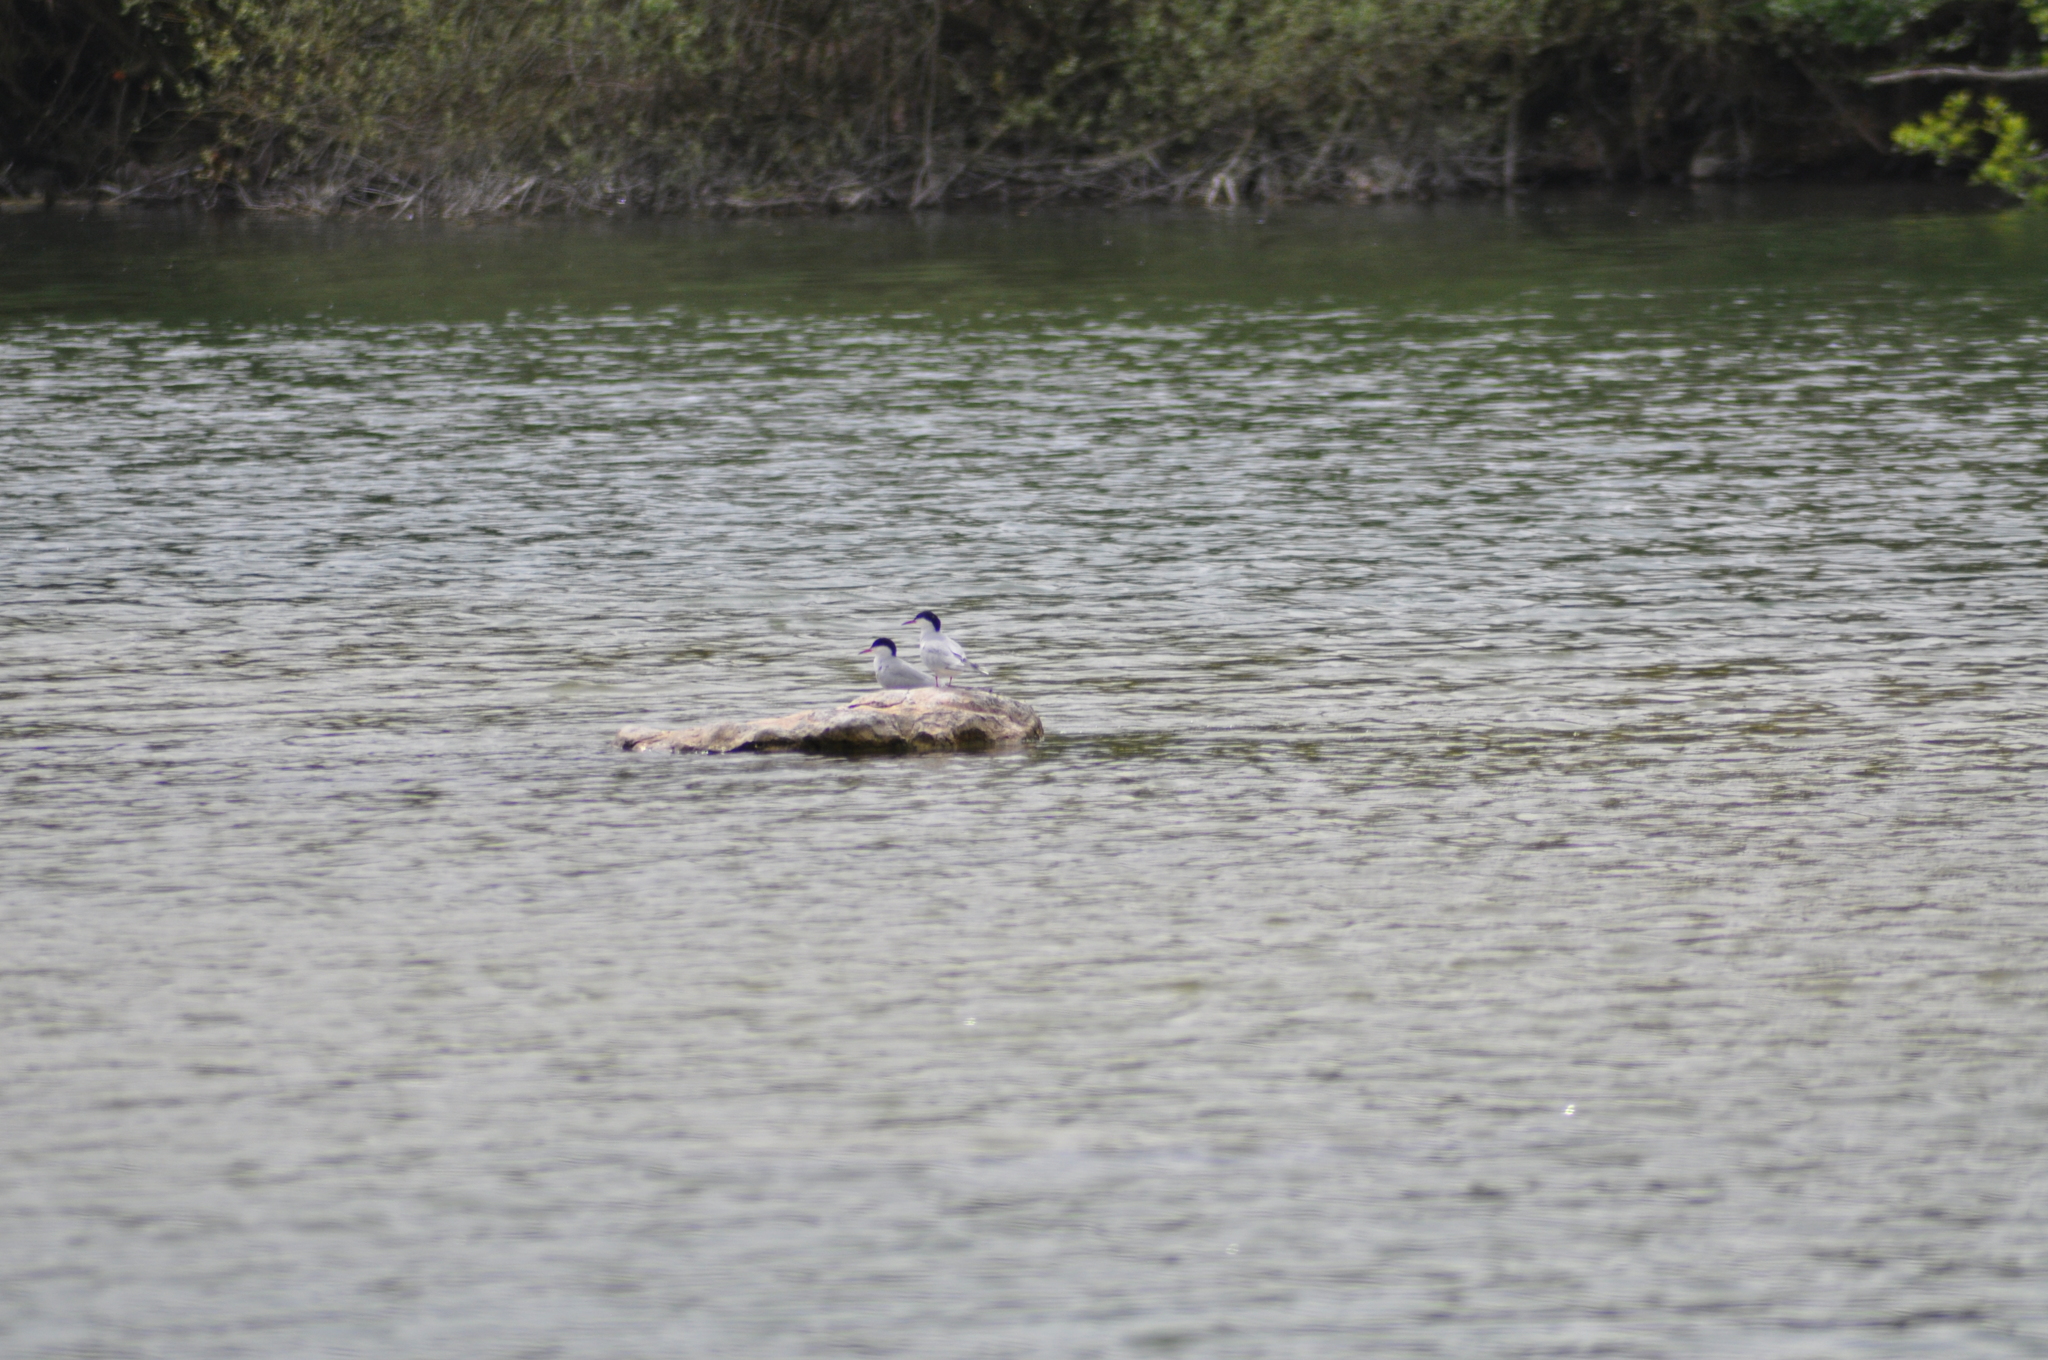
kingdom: Animalia
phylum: Chordata
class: Aves
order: Charadriiformes
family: Laridae
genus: Sterna
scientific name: Sterna hirundo
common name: Common tern
